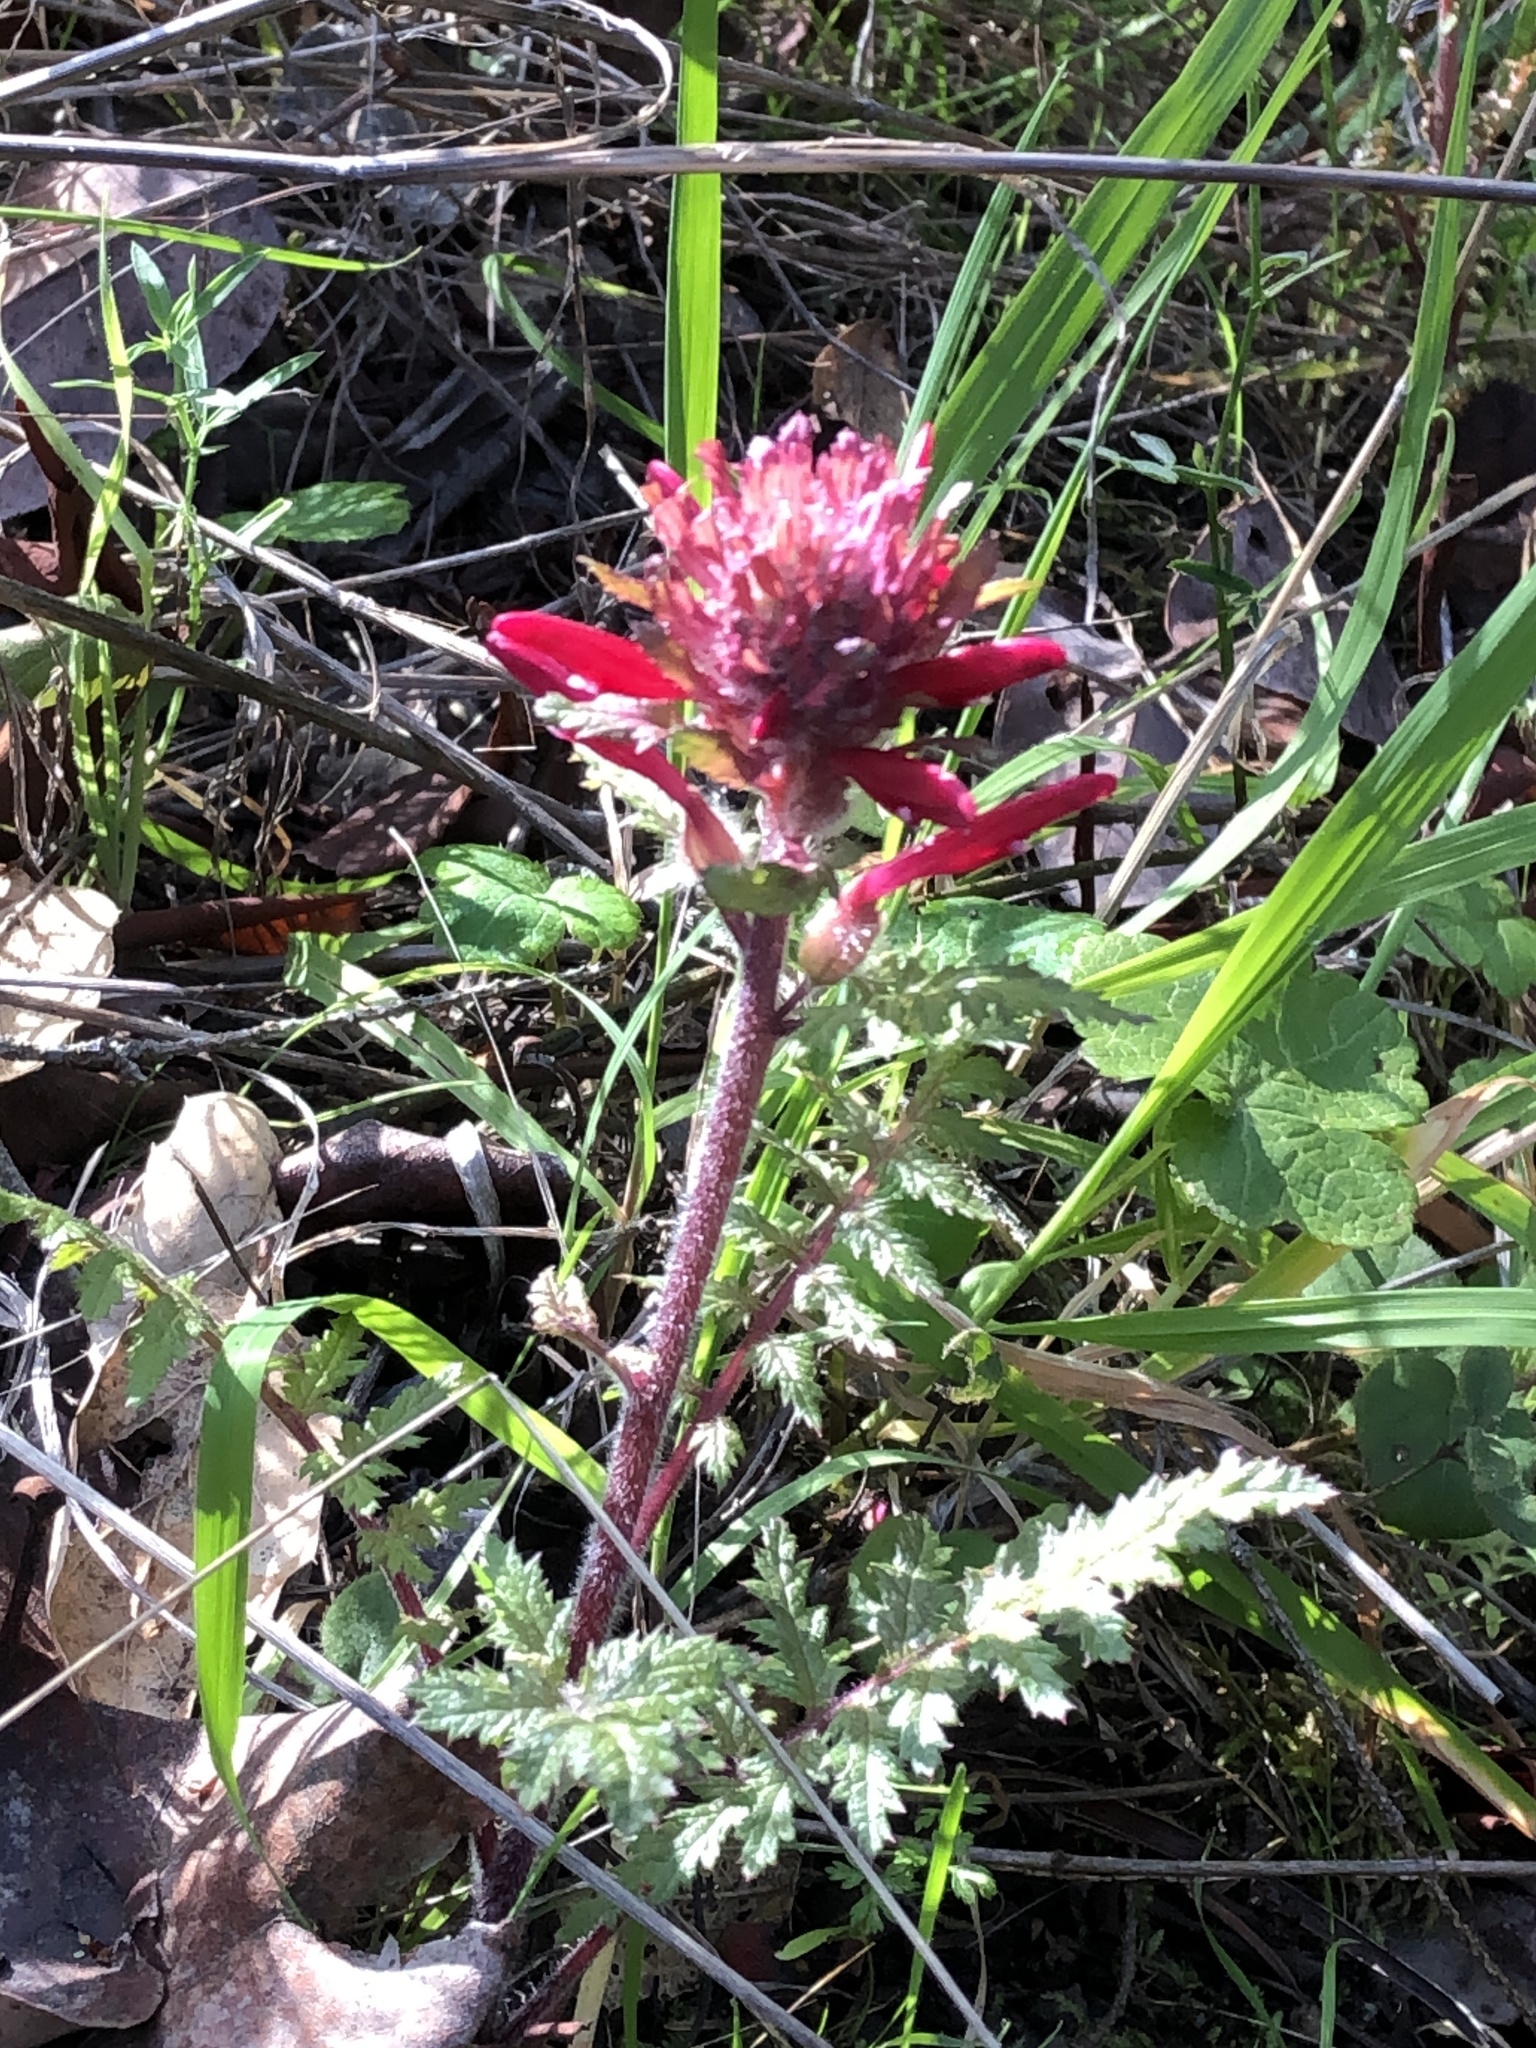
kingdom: Plantae
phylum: Tracheophyta
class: Magnoliopsida
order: Lamiales
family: Orobanchaceae
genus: Pedicularis
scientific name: Pedicularis densiflora
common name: Indian warrior
